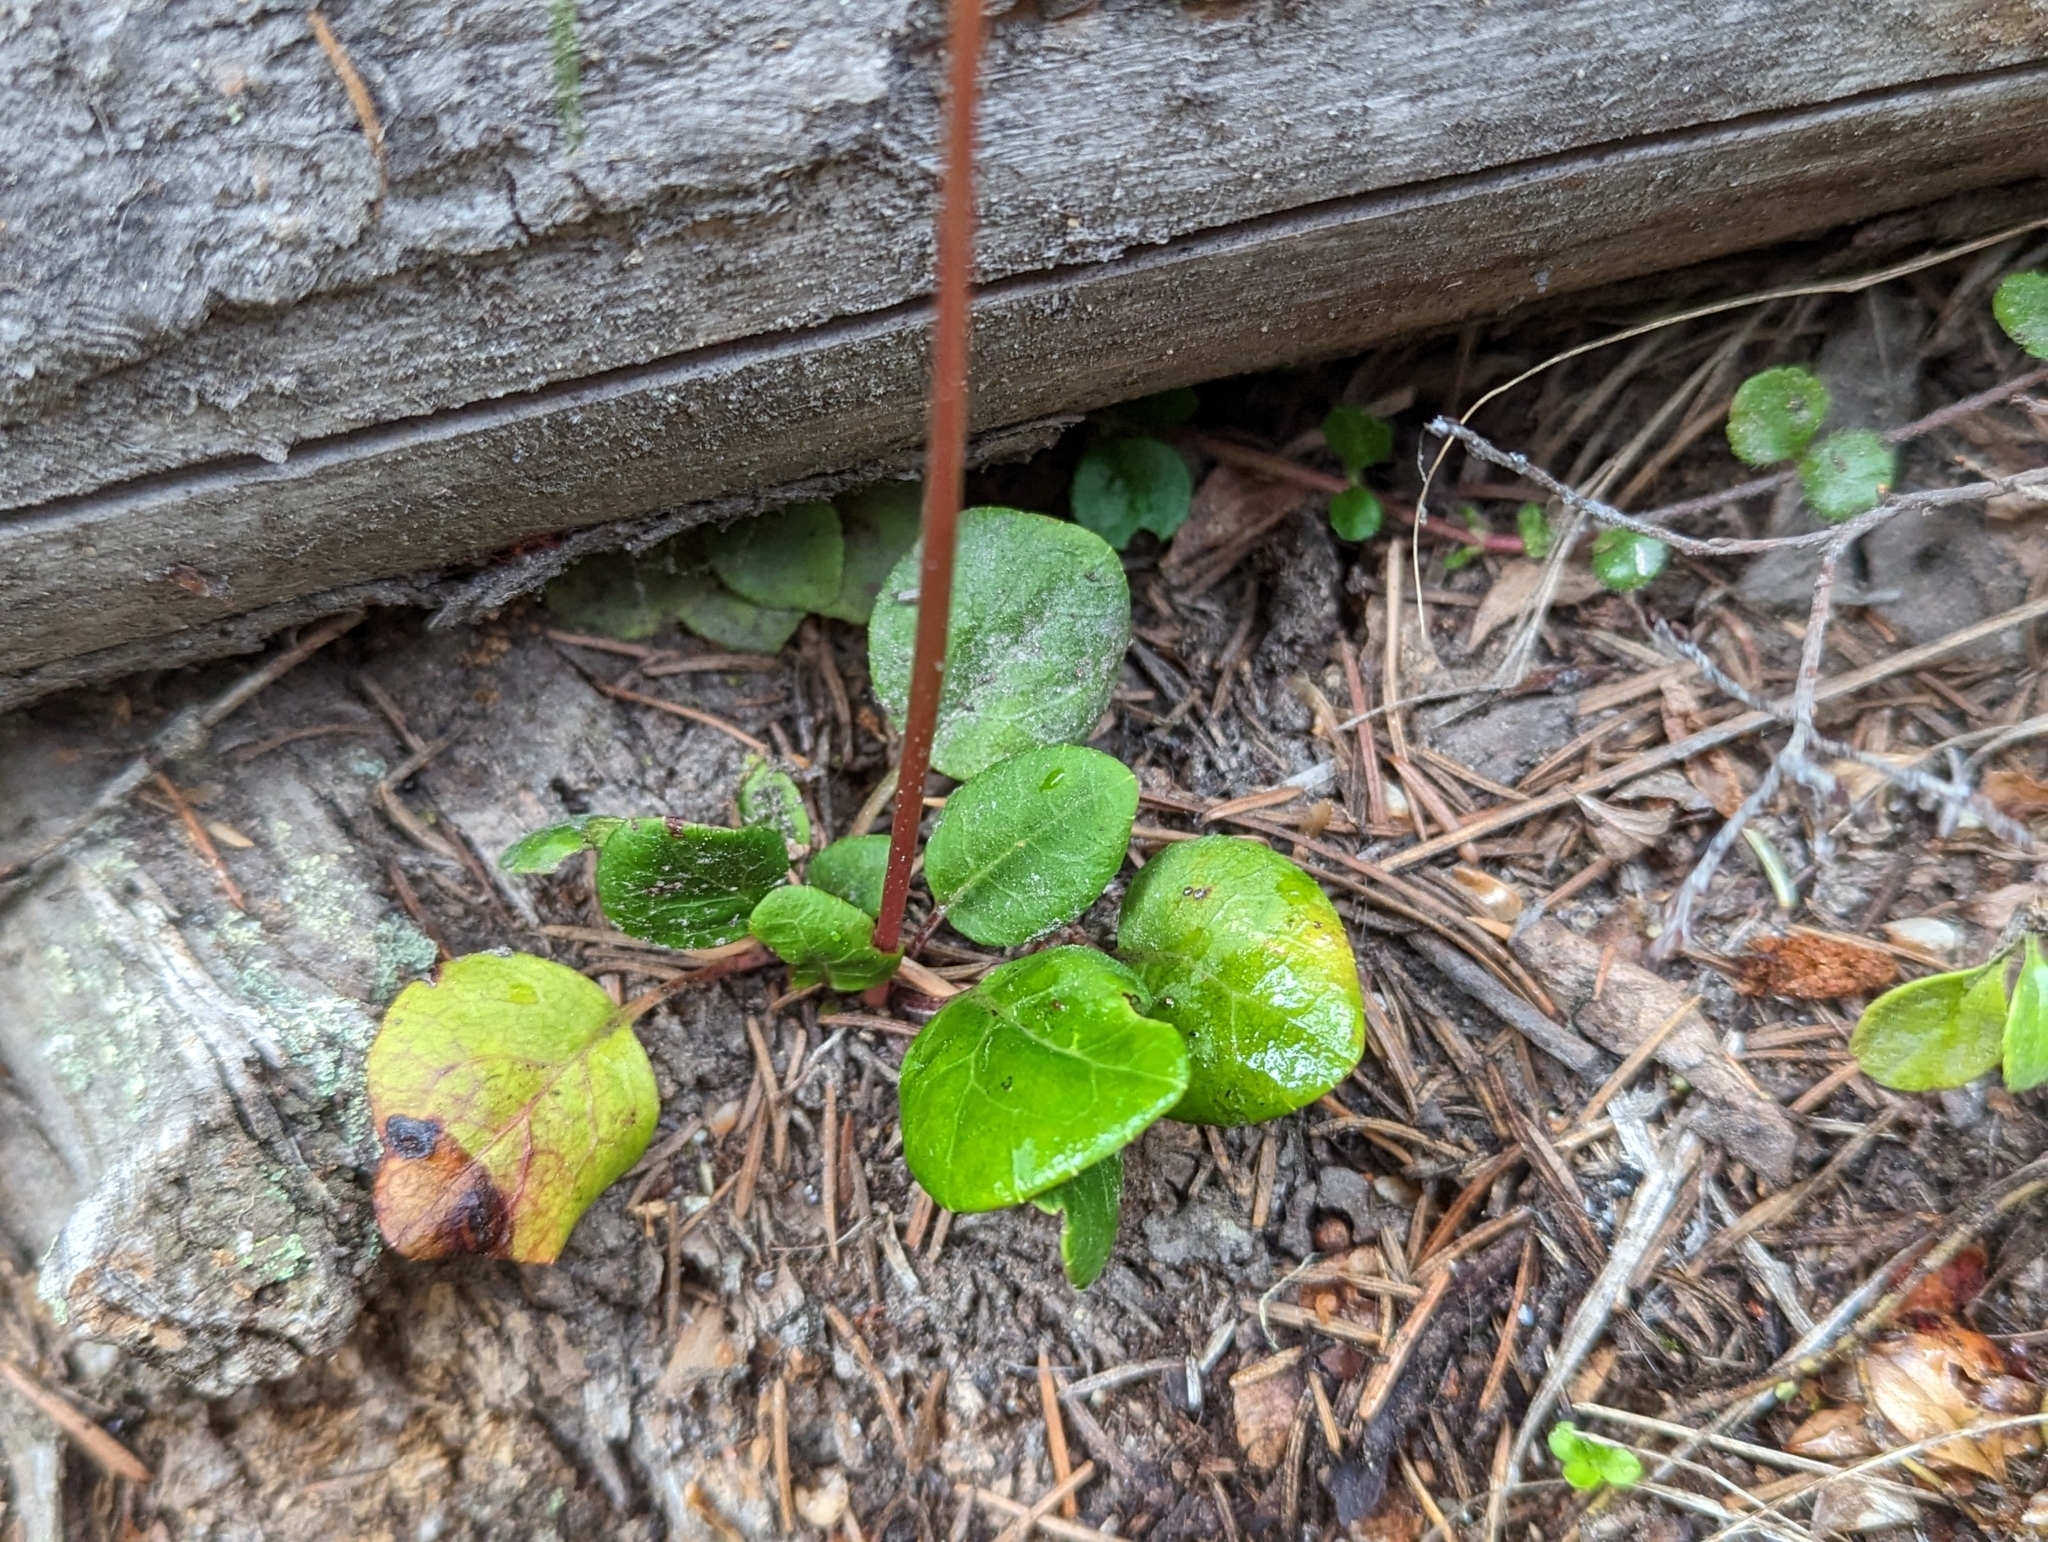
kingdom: Plantae
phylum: Tracheophyta
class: Magnoliopsida
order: Ericales
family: Ericaceae
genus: Pyrola
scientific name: Pyrola chlorantha
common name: Green wintergreen
